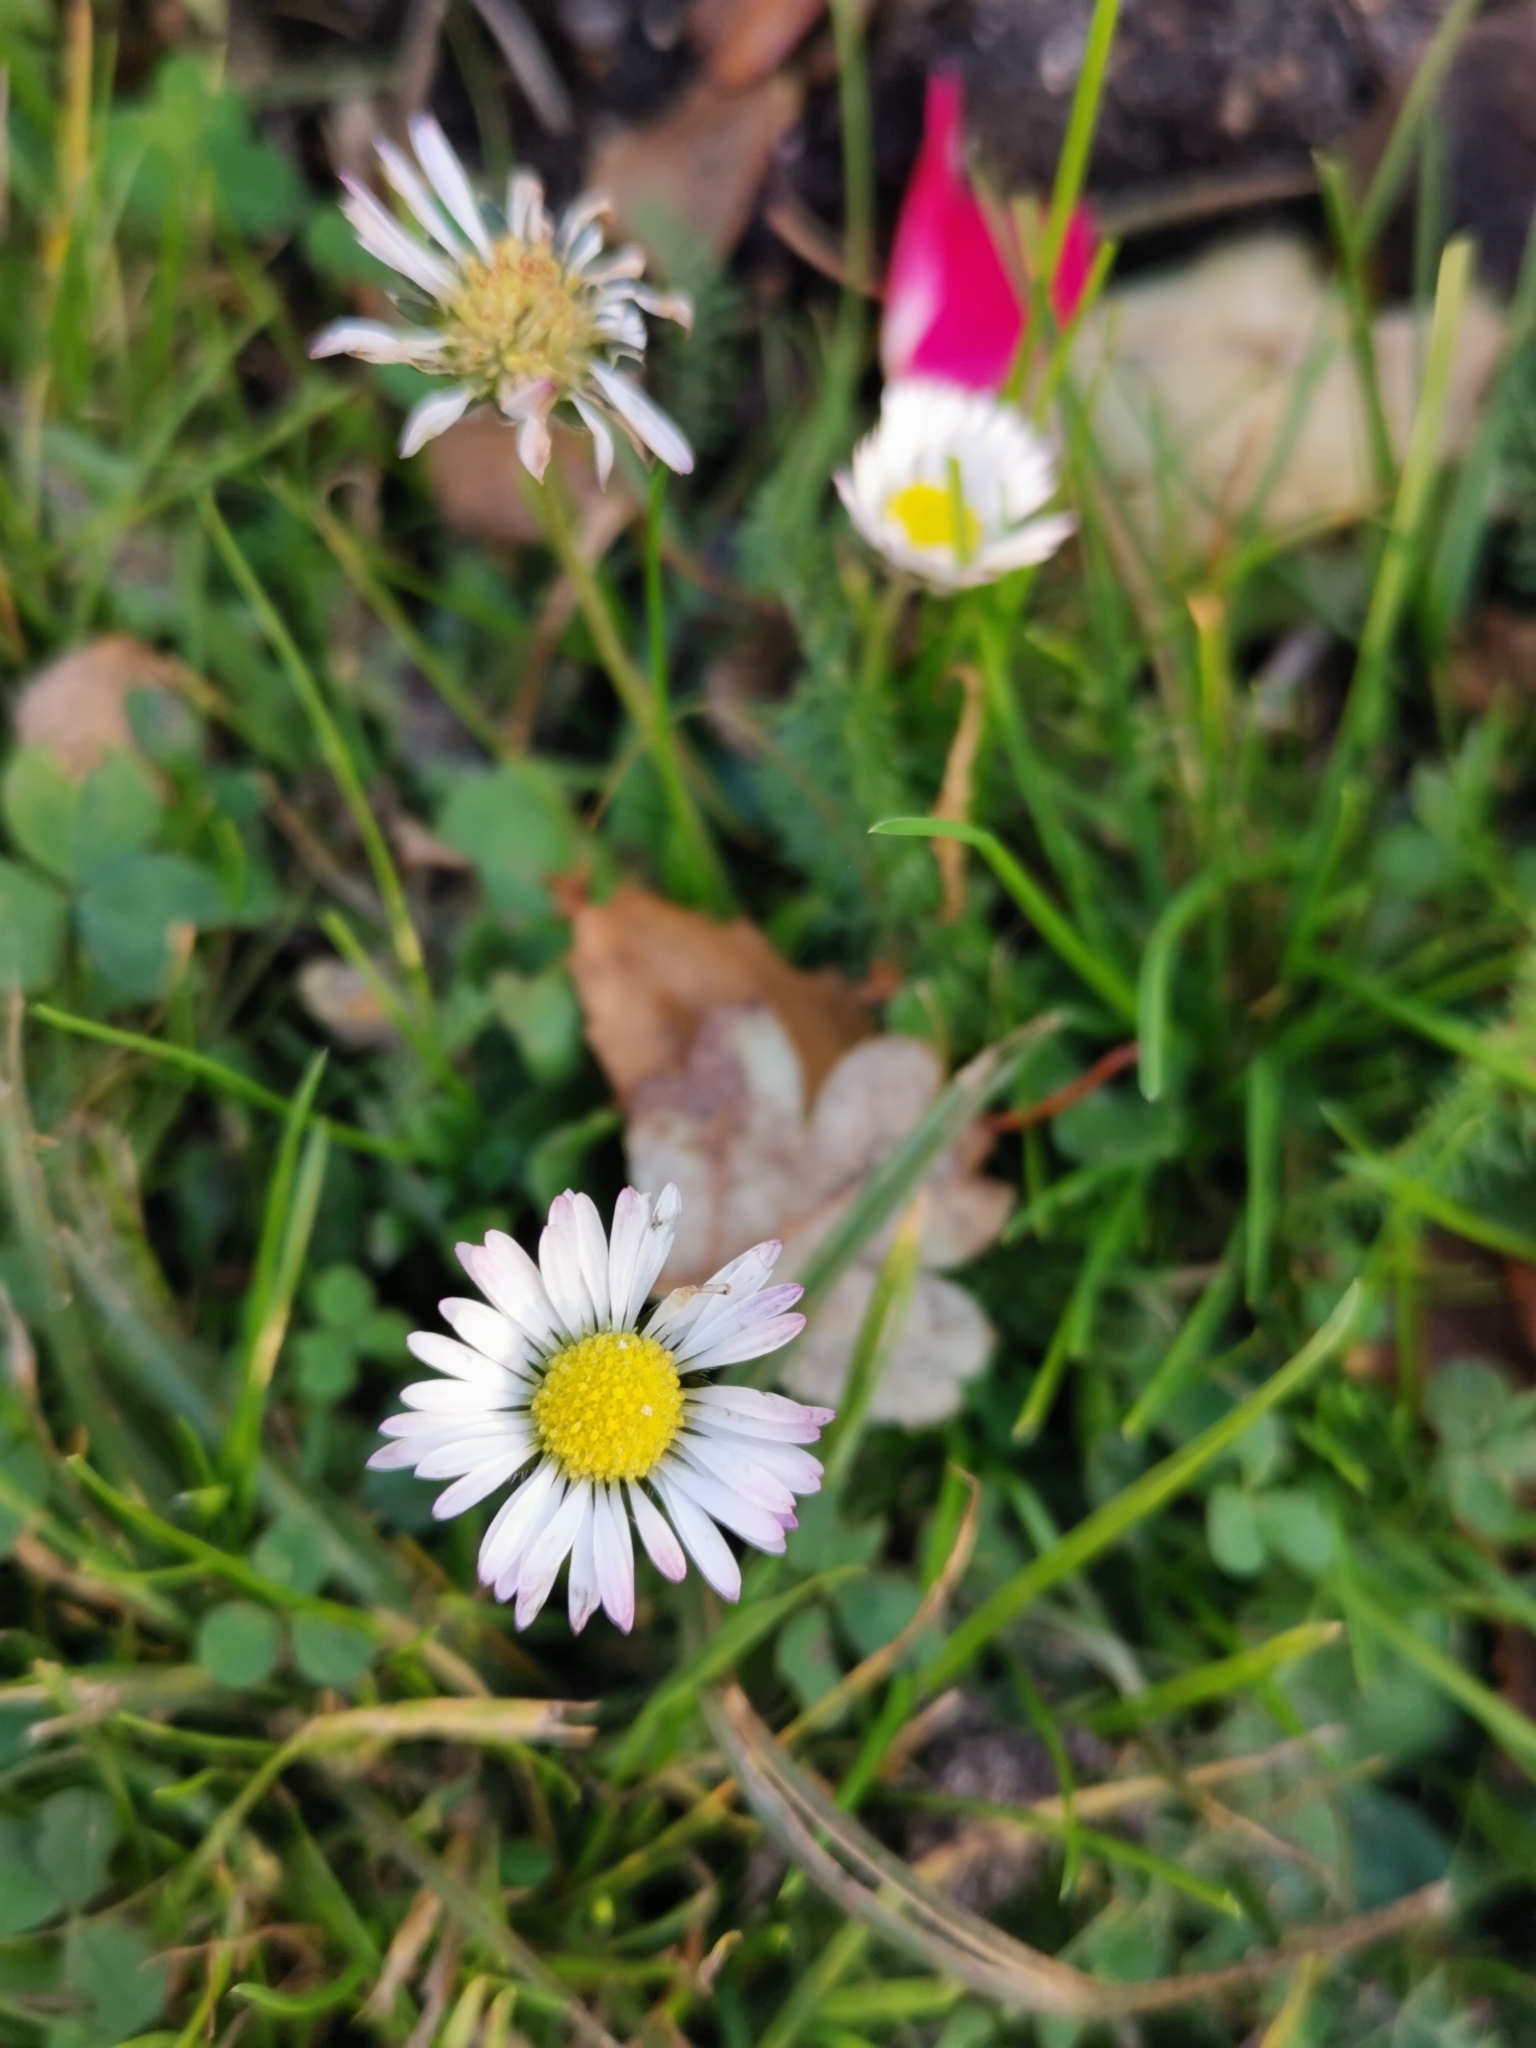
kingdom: Plantae
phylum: Tracheophyta
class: Magnoliopsida
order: Asterales
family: Asteraceae
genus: Bellis
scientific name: Bellis perennis
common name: Lawndaisy
